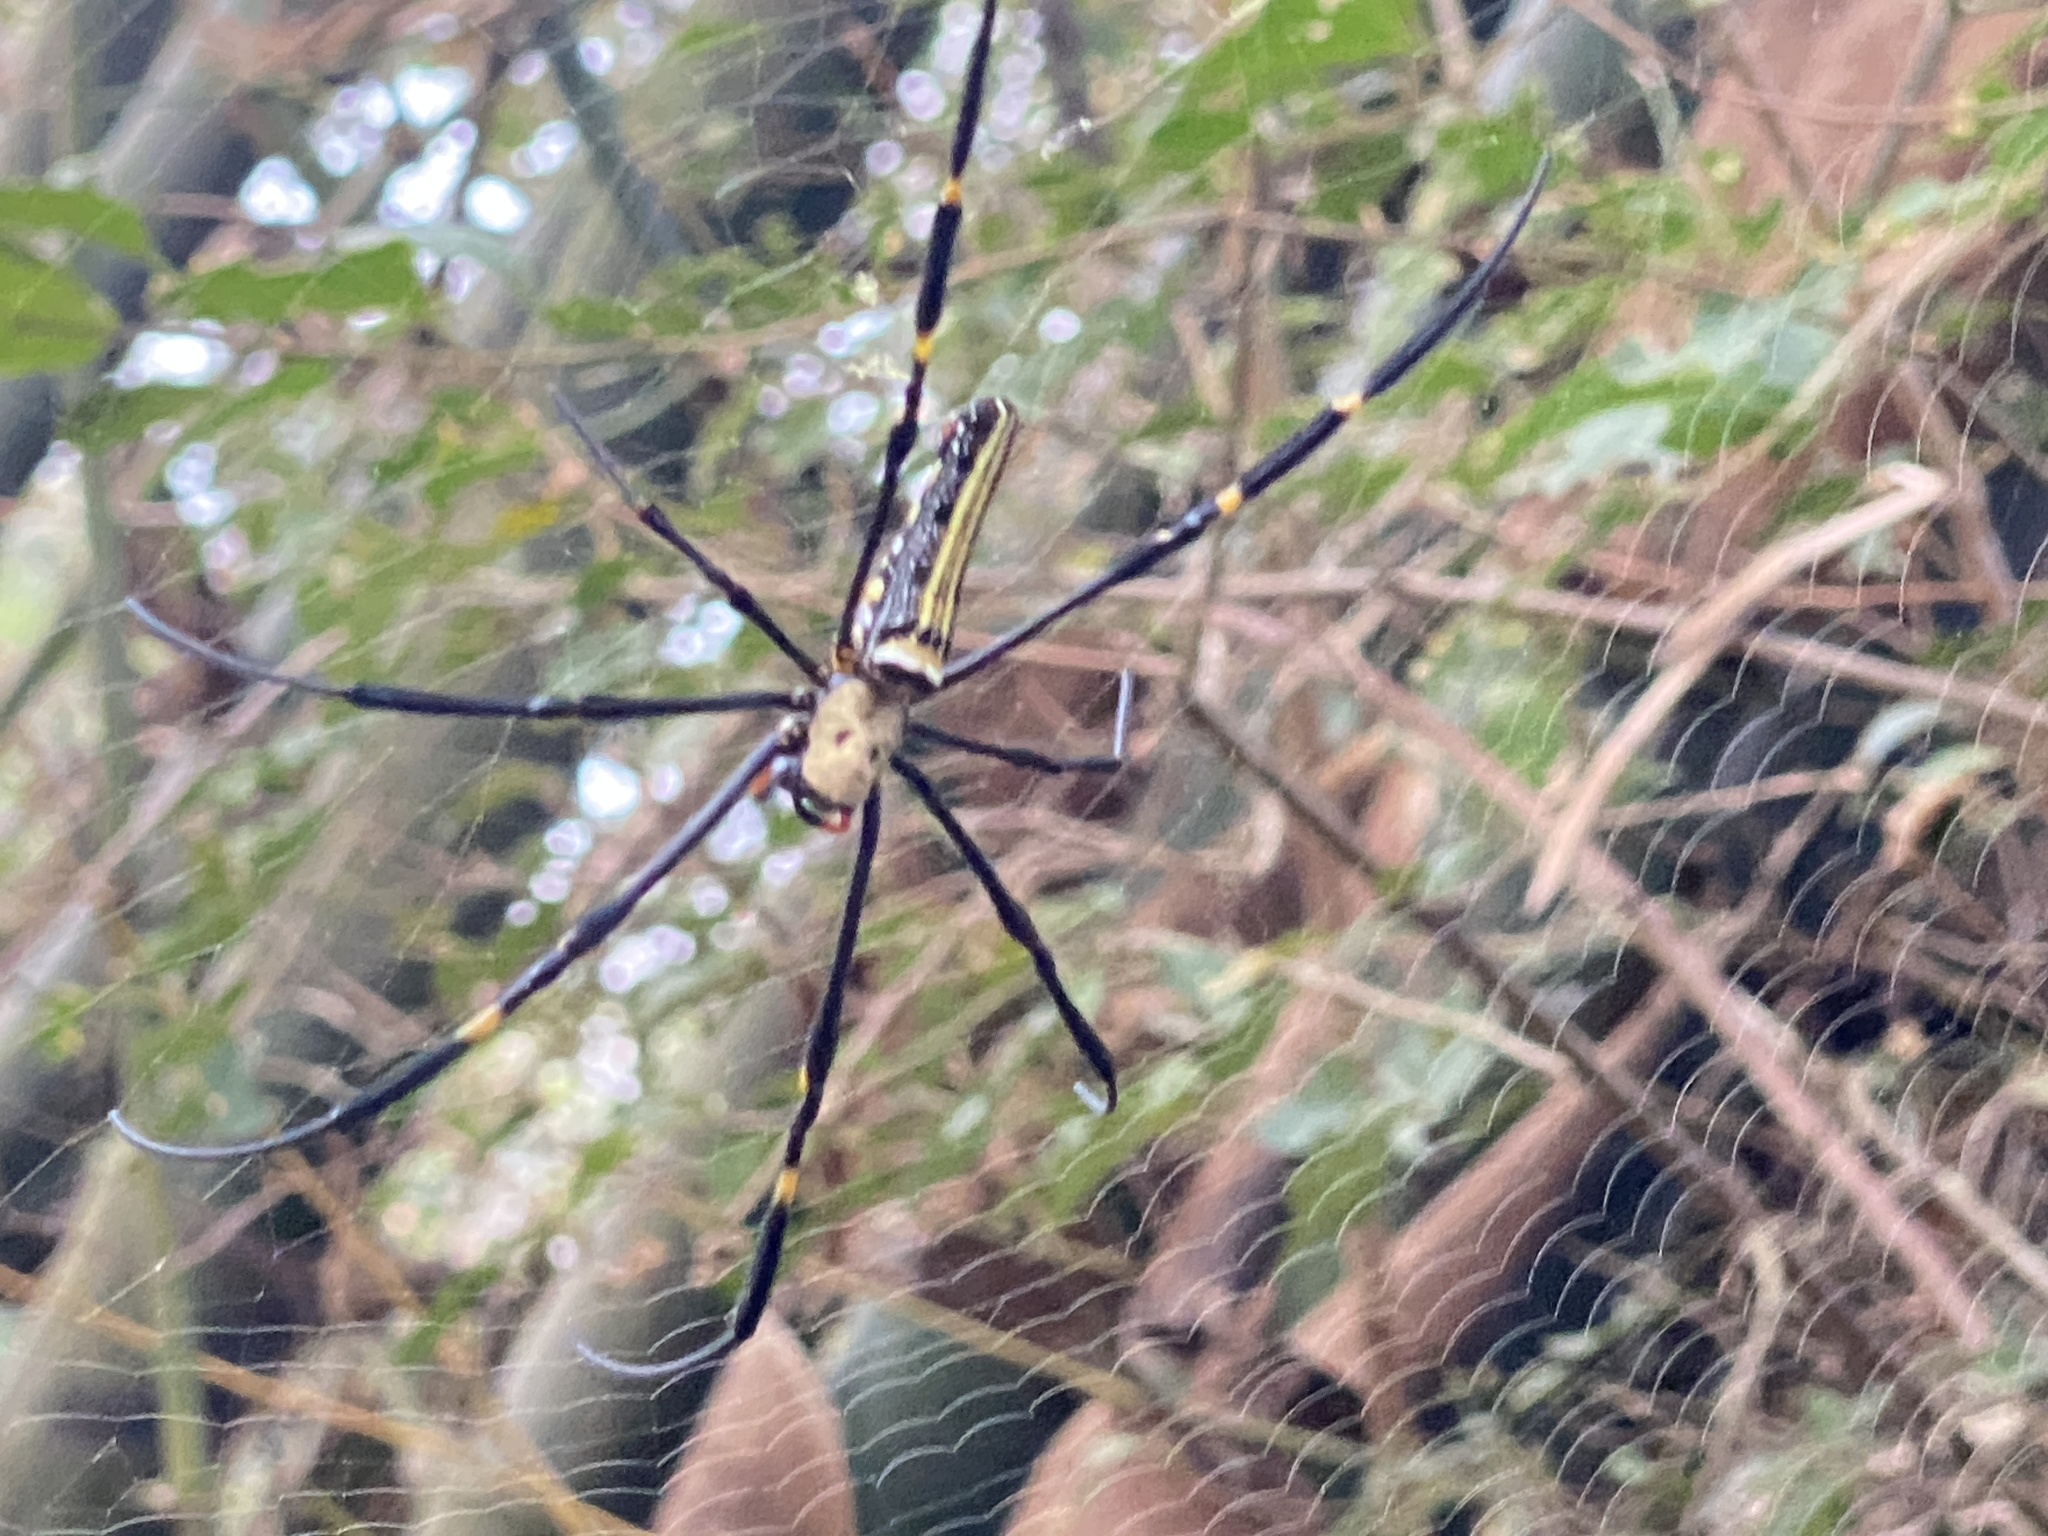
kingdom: Animalia
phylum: Arthropoda
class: Arachnida
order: Araneae
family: Araneidae
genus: Nephila
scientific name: Nephila pilipes
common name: Giant golden orb weaver
